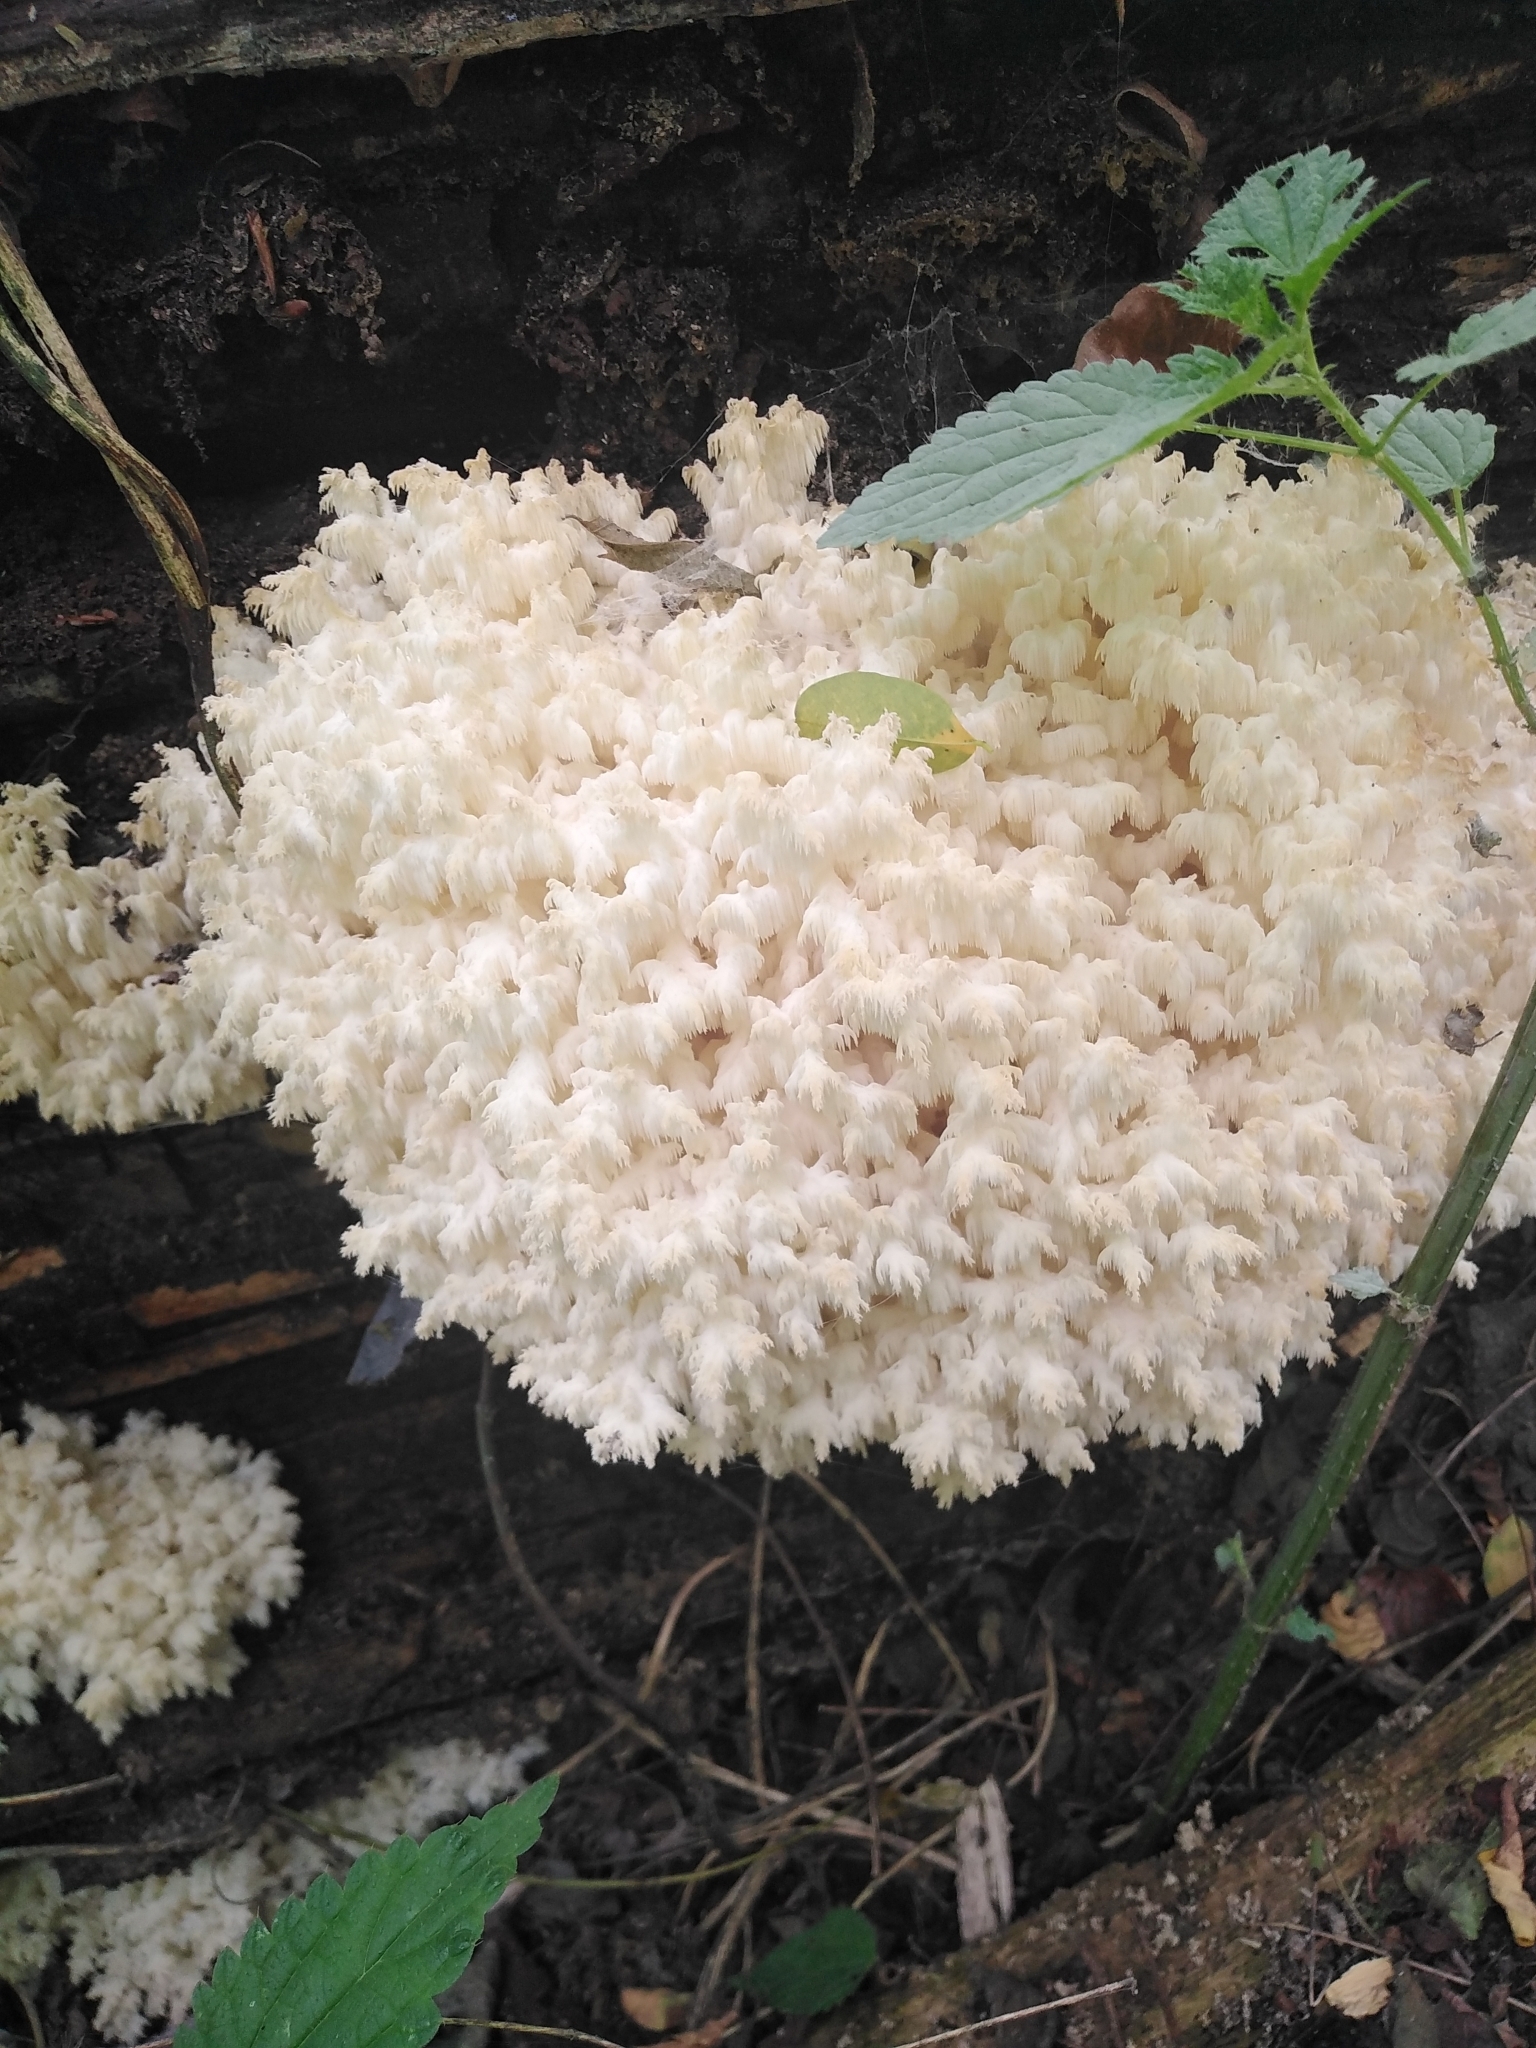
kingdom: Fungi
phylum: Basidiomycota
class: Agaricomycetes
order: Russulales
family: Hericiaceae
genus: Hericium
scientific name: Hericium coralloides
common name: Coral tooth
